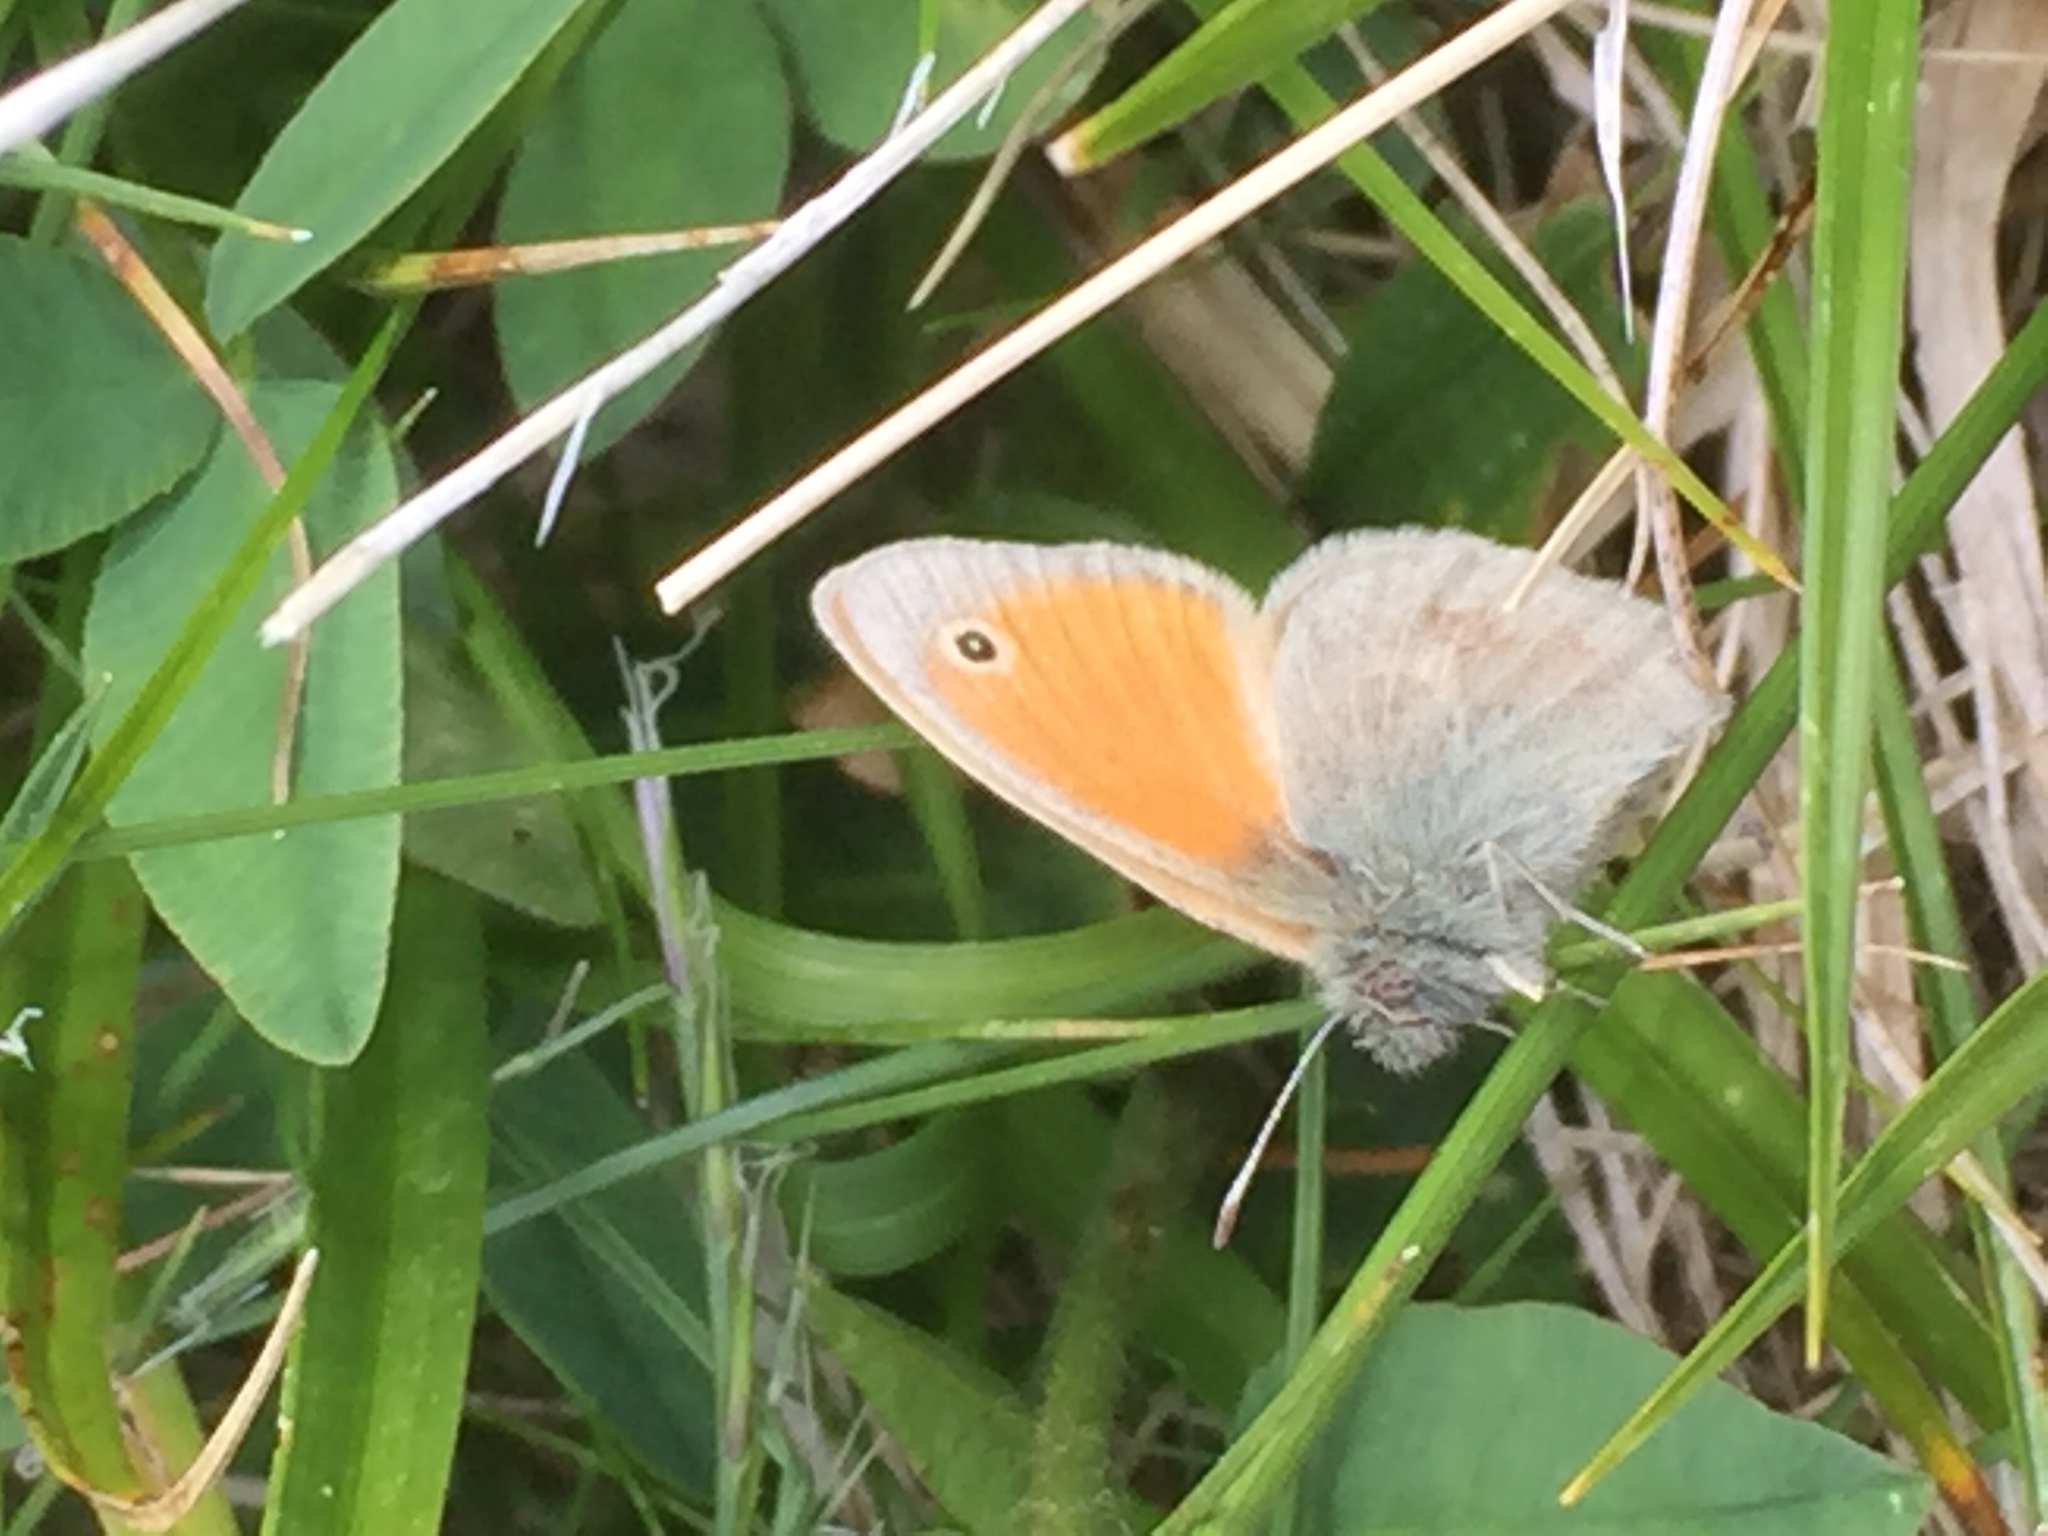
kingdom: Animalia
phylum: Arthropoda
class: Insecta
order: Lepidoptera
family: Nymphalidae
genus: Coenonympha
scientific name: Coenonympha pamphilus
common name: Small heath
